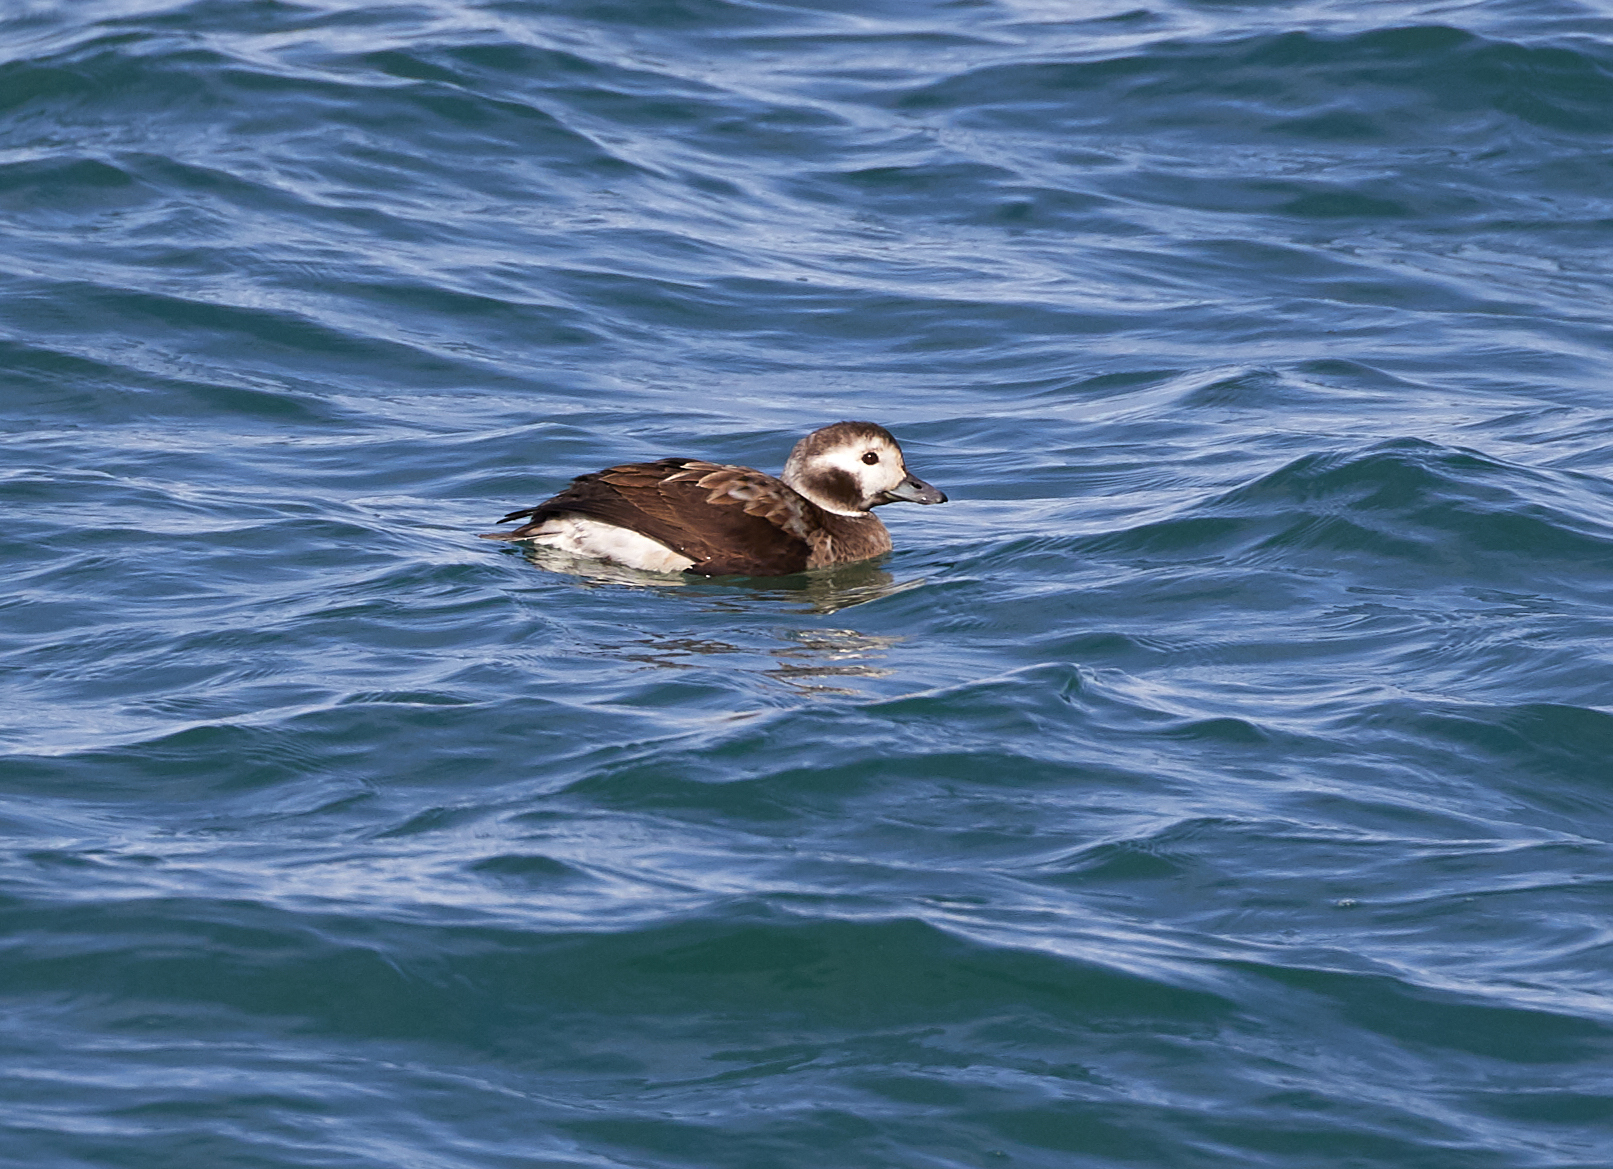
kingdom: Animalia
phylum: Chordata
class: Aves
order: Anseriformes
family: Anatidae
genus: Clangula
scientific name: Clangula hyemalis
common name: Long-tailed duck
